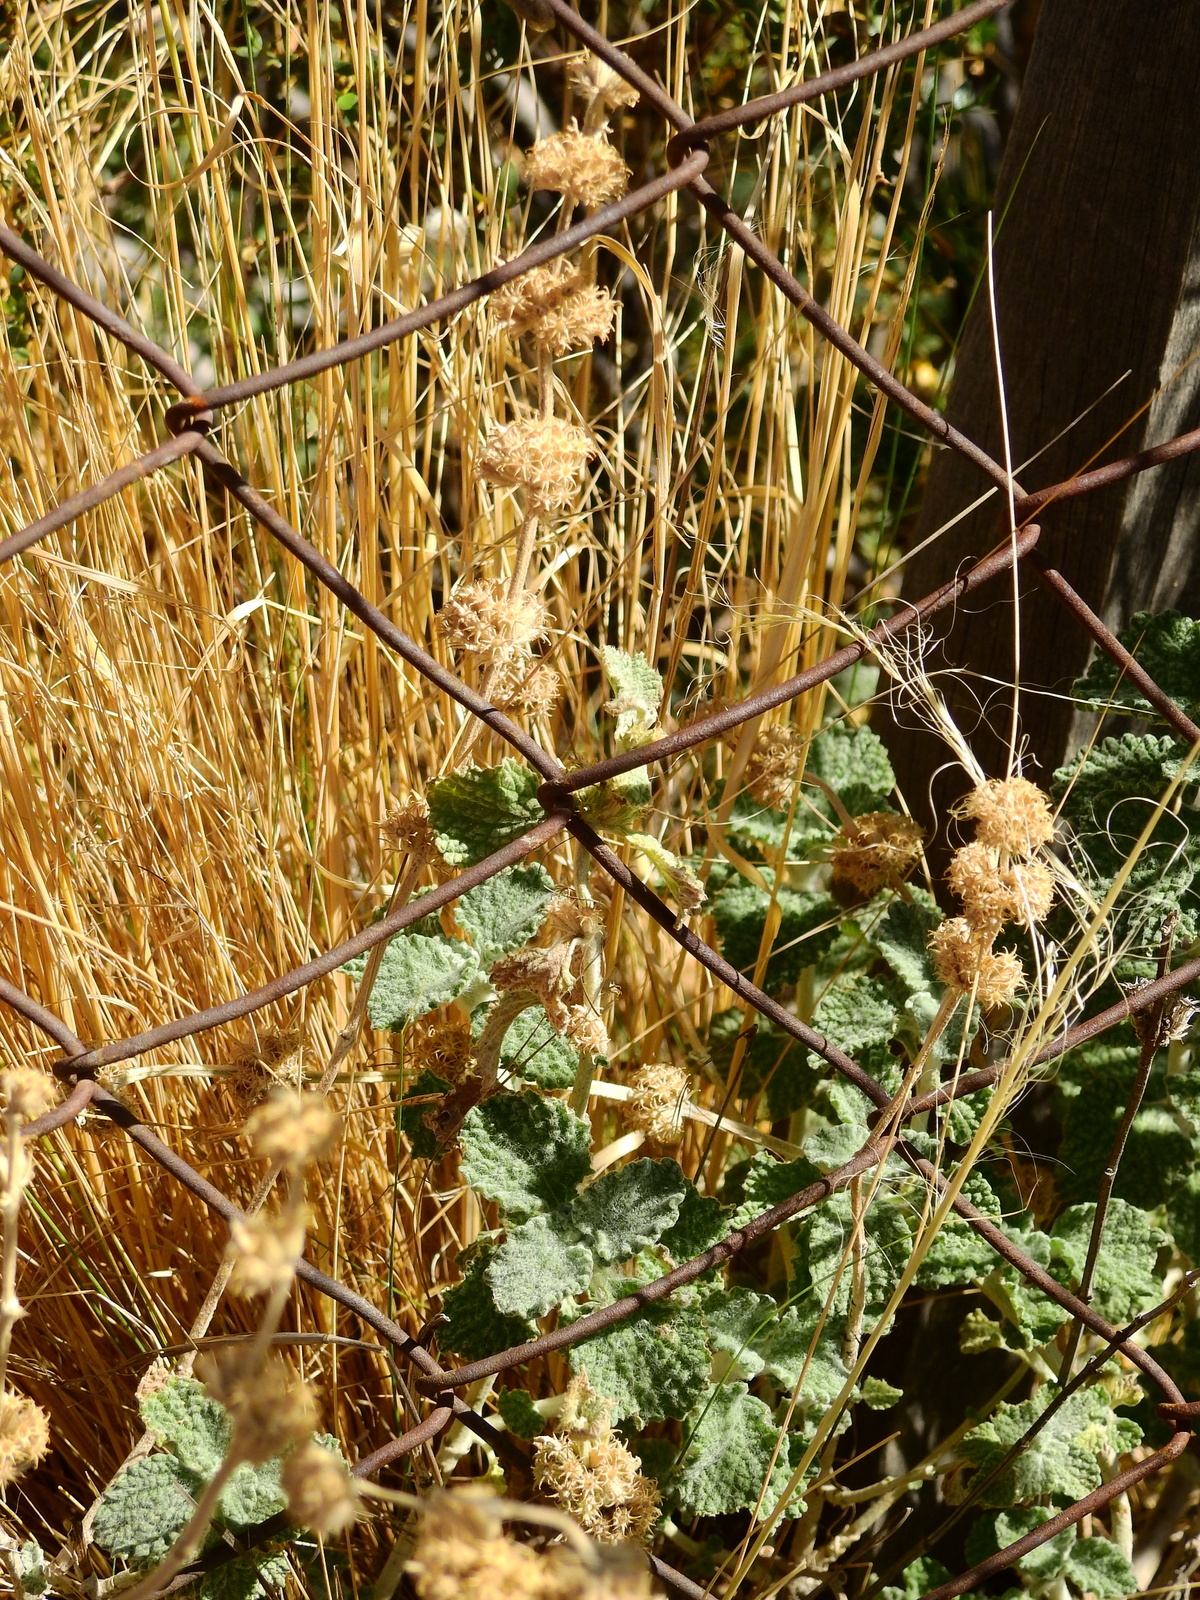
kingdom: Plantae
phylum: Tracheophyta
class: Magnoliopsida
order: Lamiales
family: Lamiaceae
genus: Marrubium
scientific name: Marrubium vulgare
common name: Horehound
